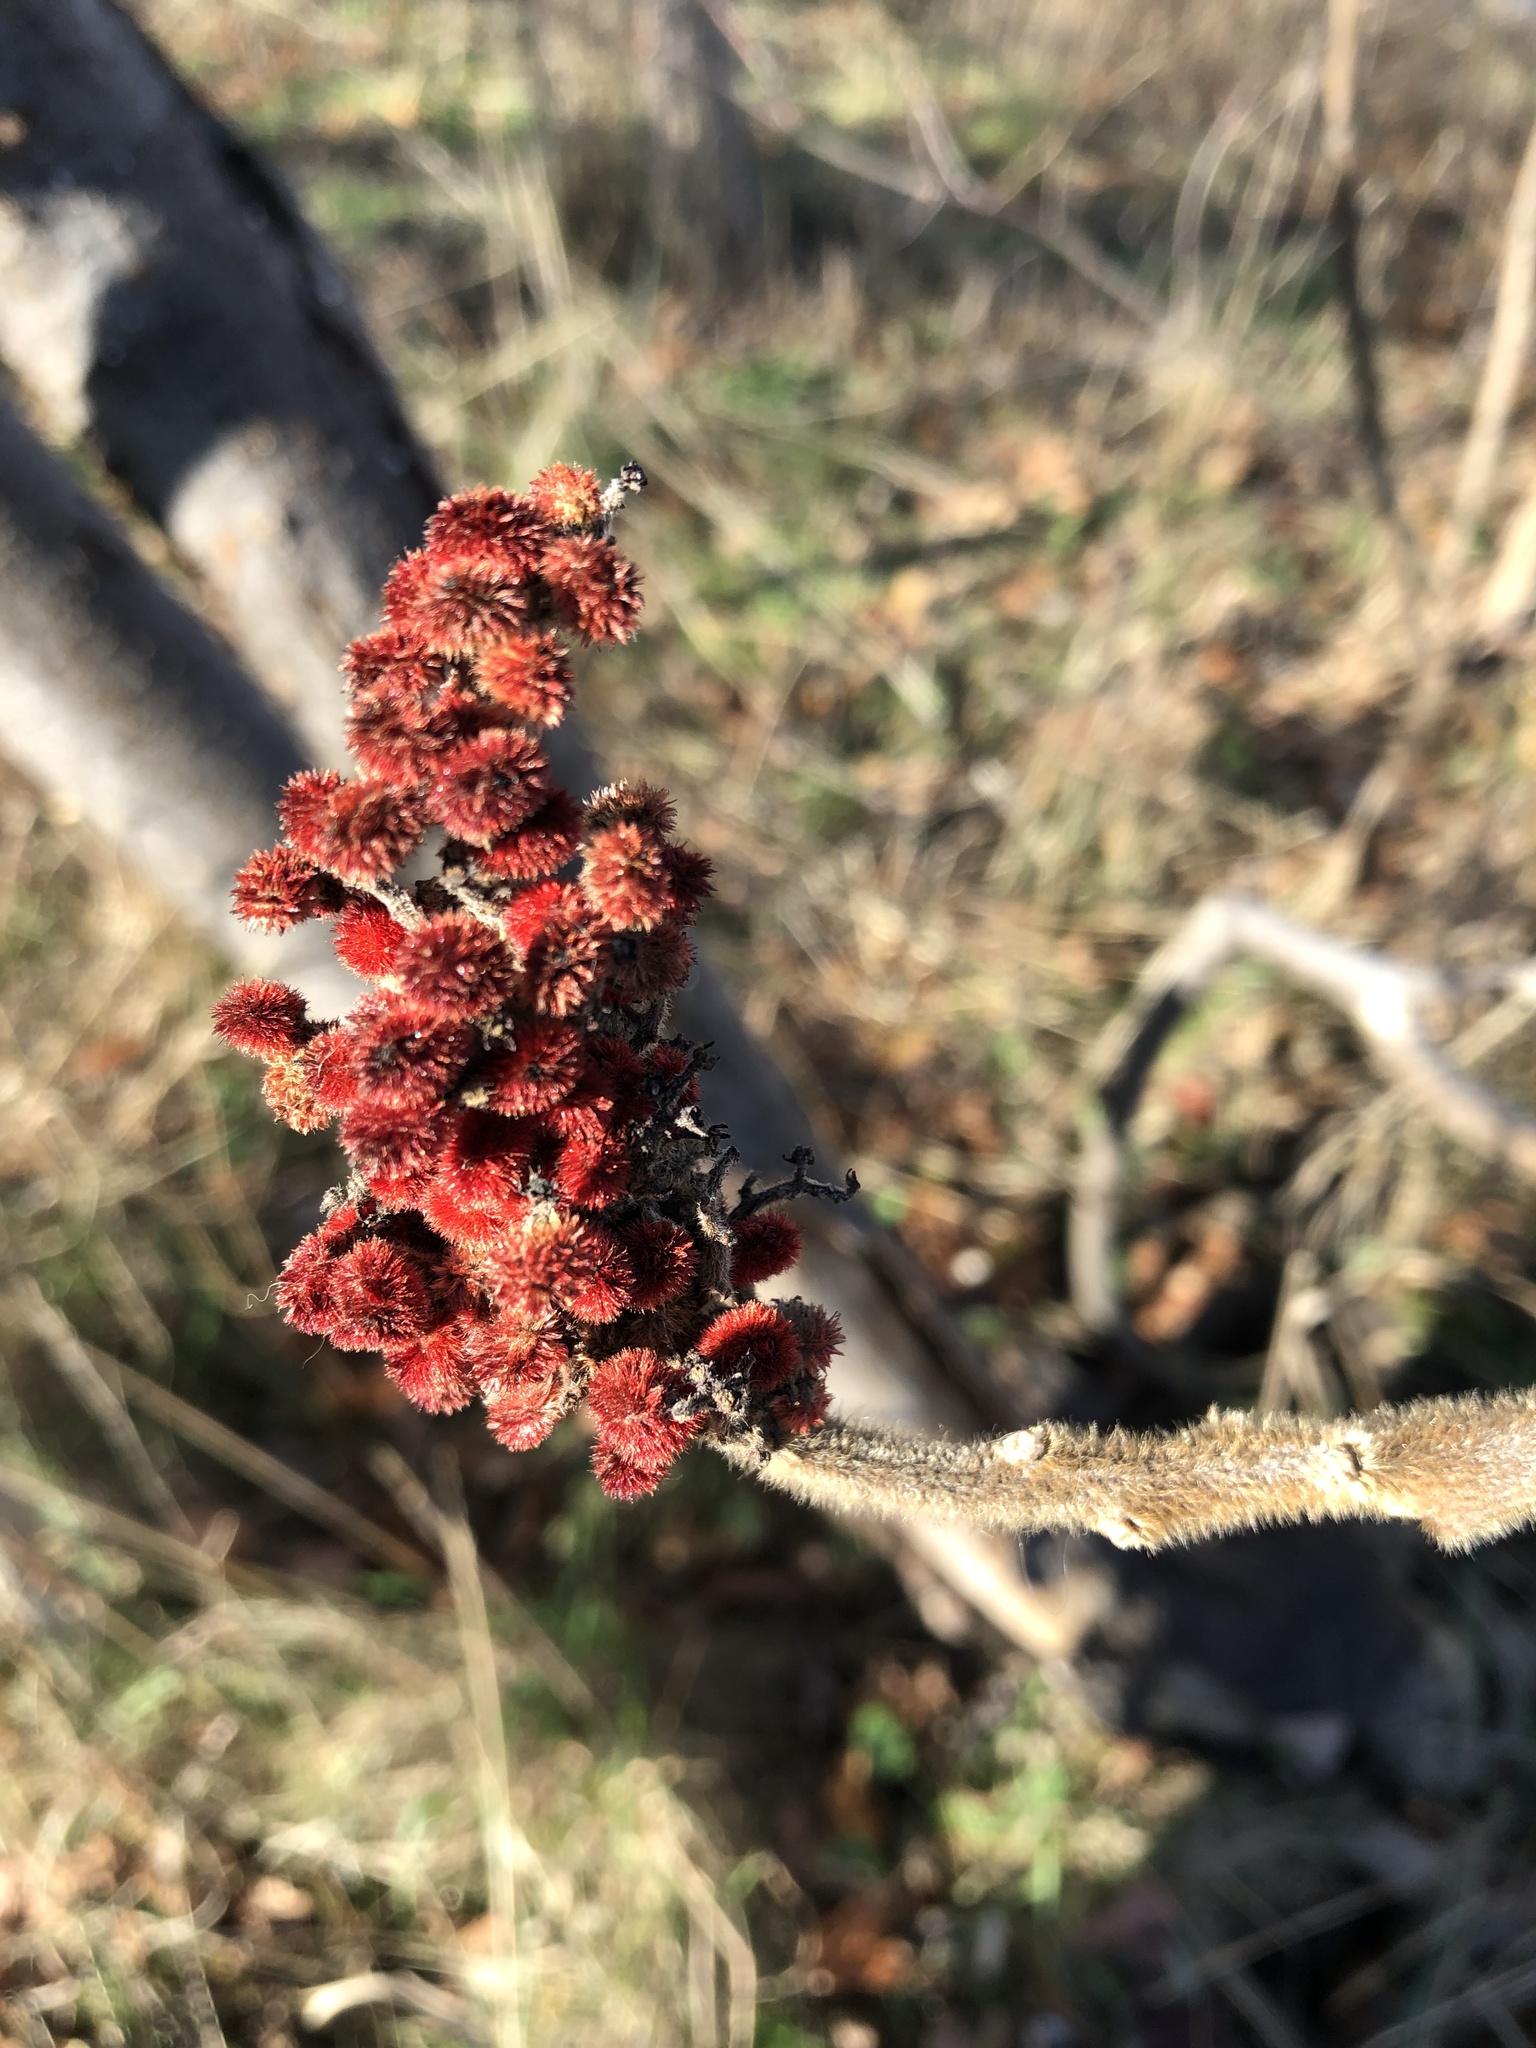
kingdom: Plantae
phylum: Tracheophyta
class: Magnoliopsida
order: Sapindales
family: Anacardiaceae
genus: Rhus
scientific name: Rhus typhina
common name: Staghorn sumac
